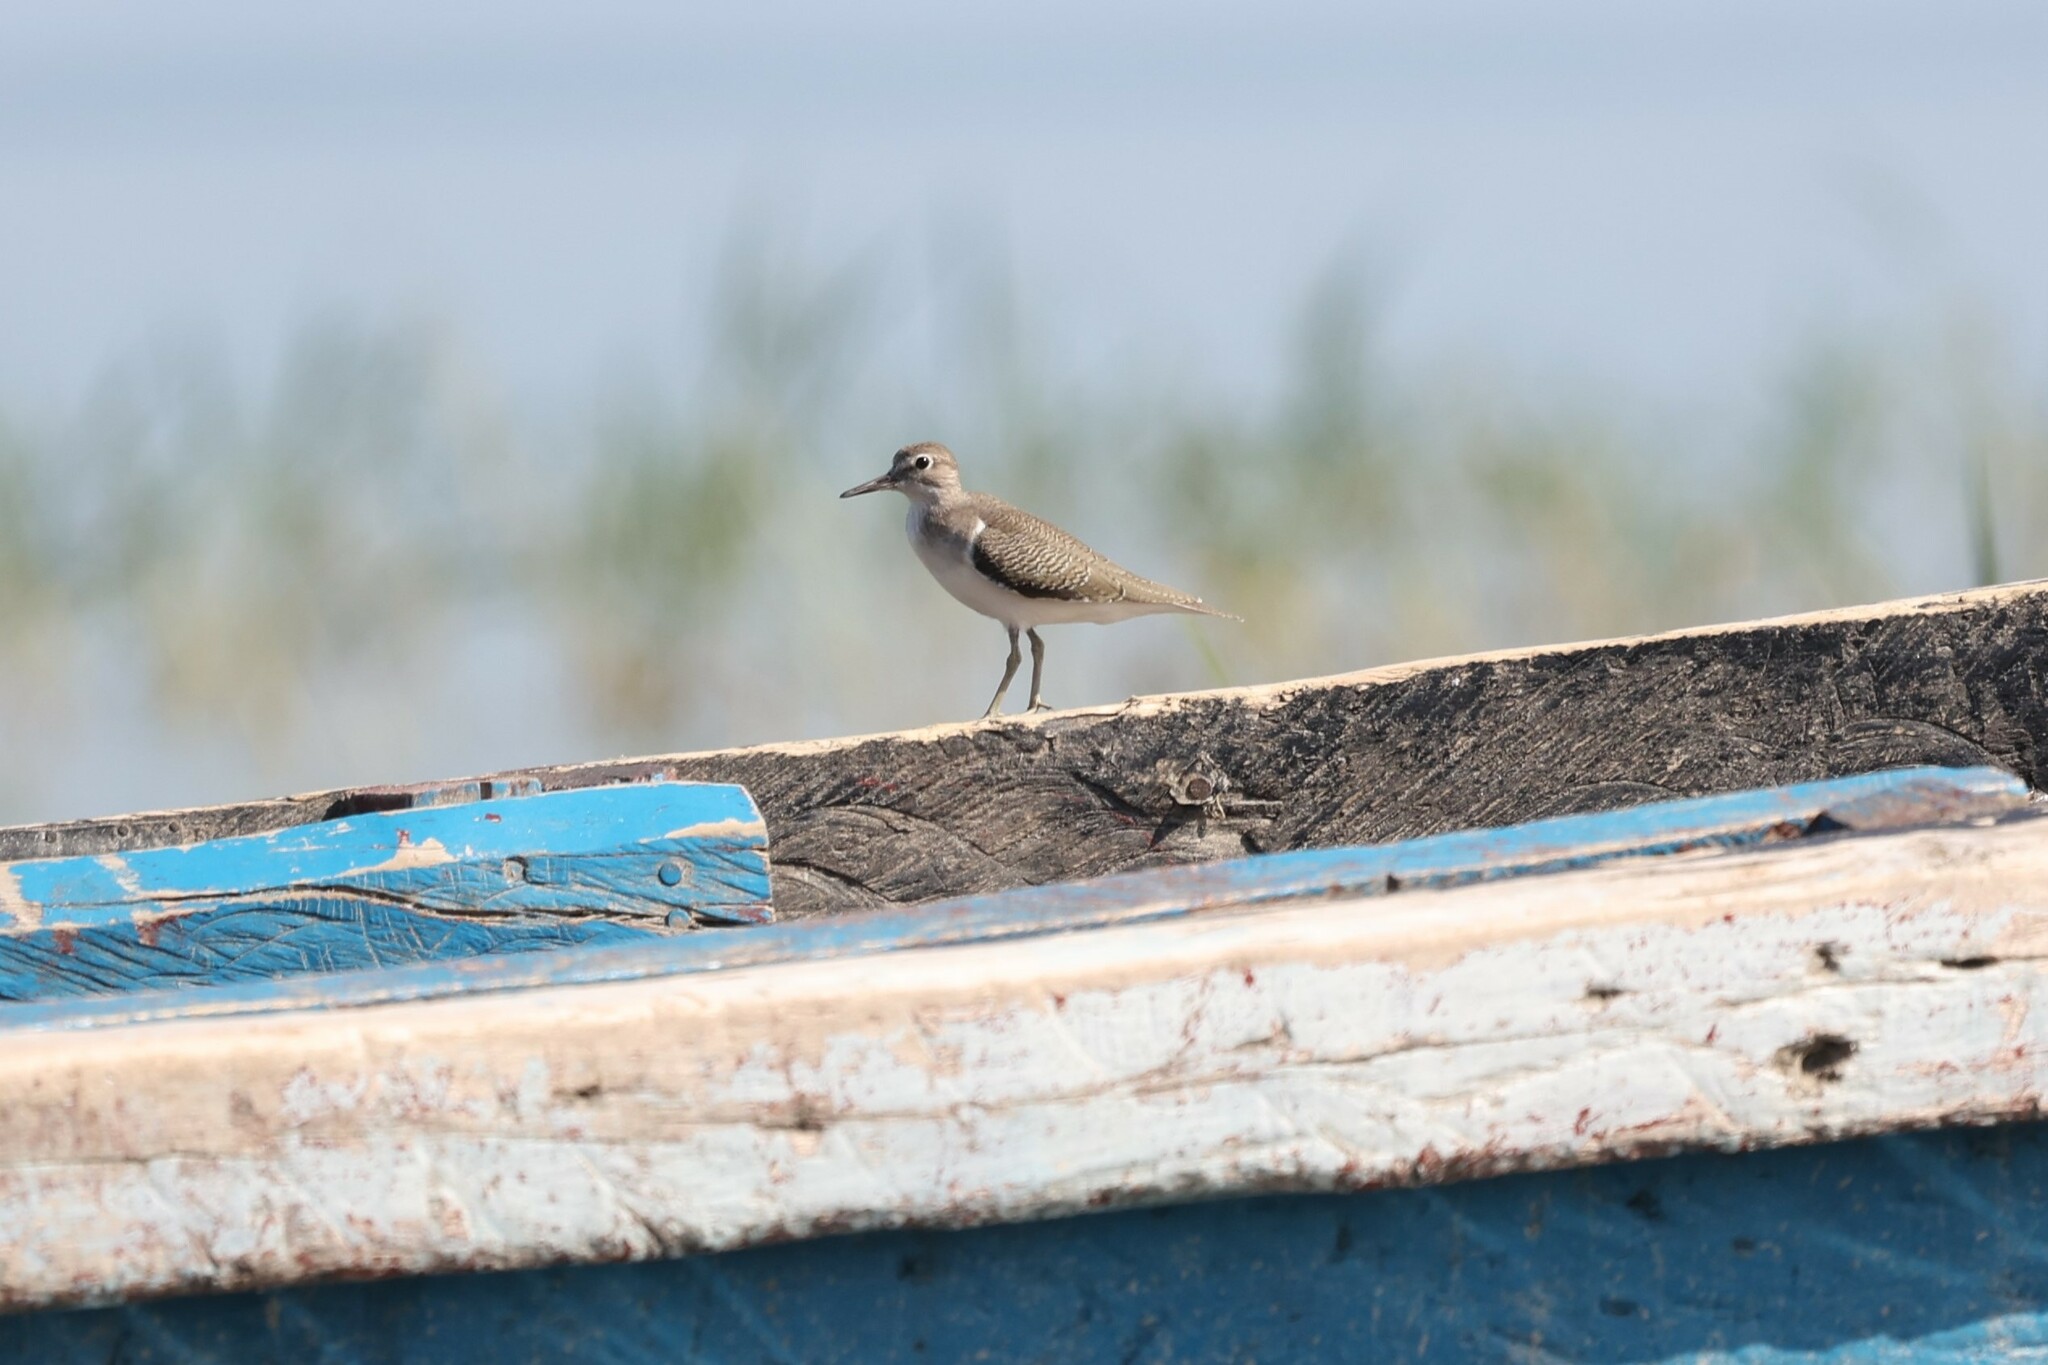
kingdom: Animalia
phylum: Chordata
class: Aves
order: Charadriiformes
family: Scolopacidae
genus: Actitis
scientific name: Actitis hypoleucos
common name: Common sandpiper
